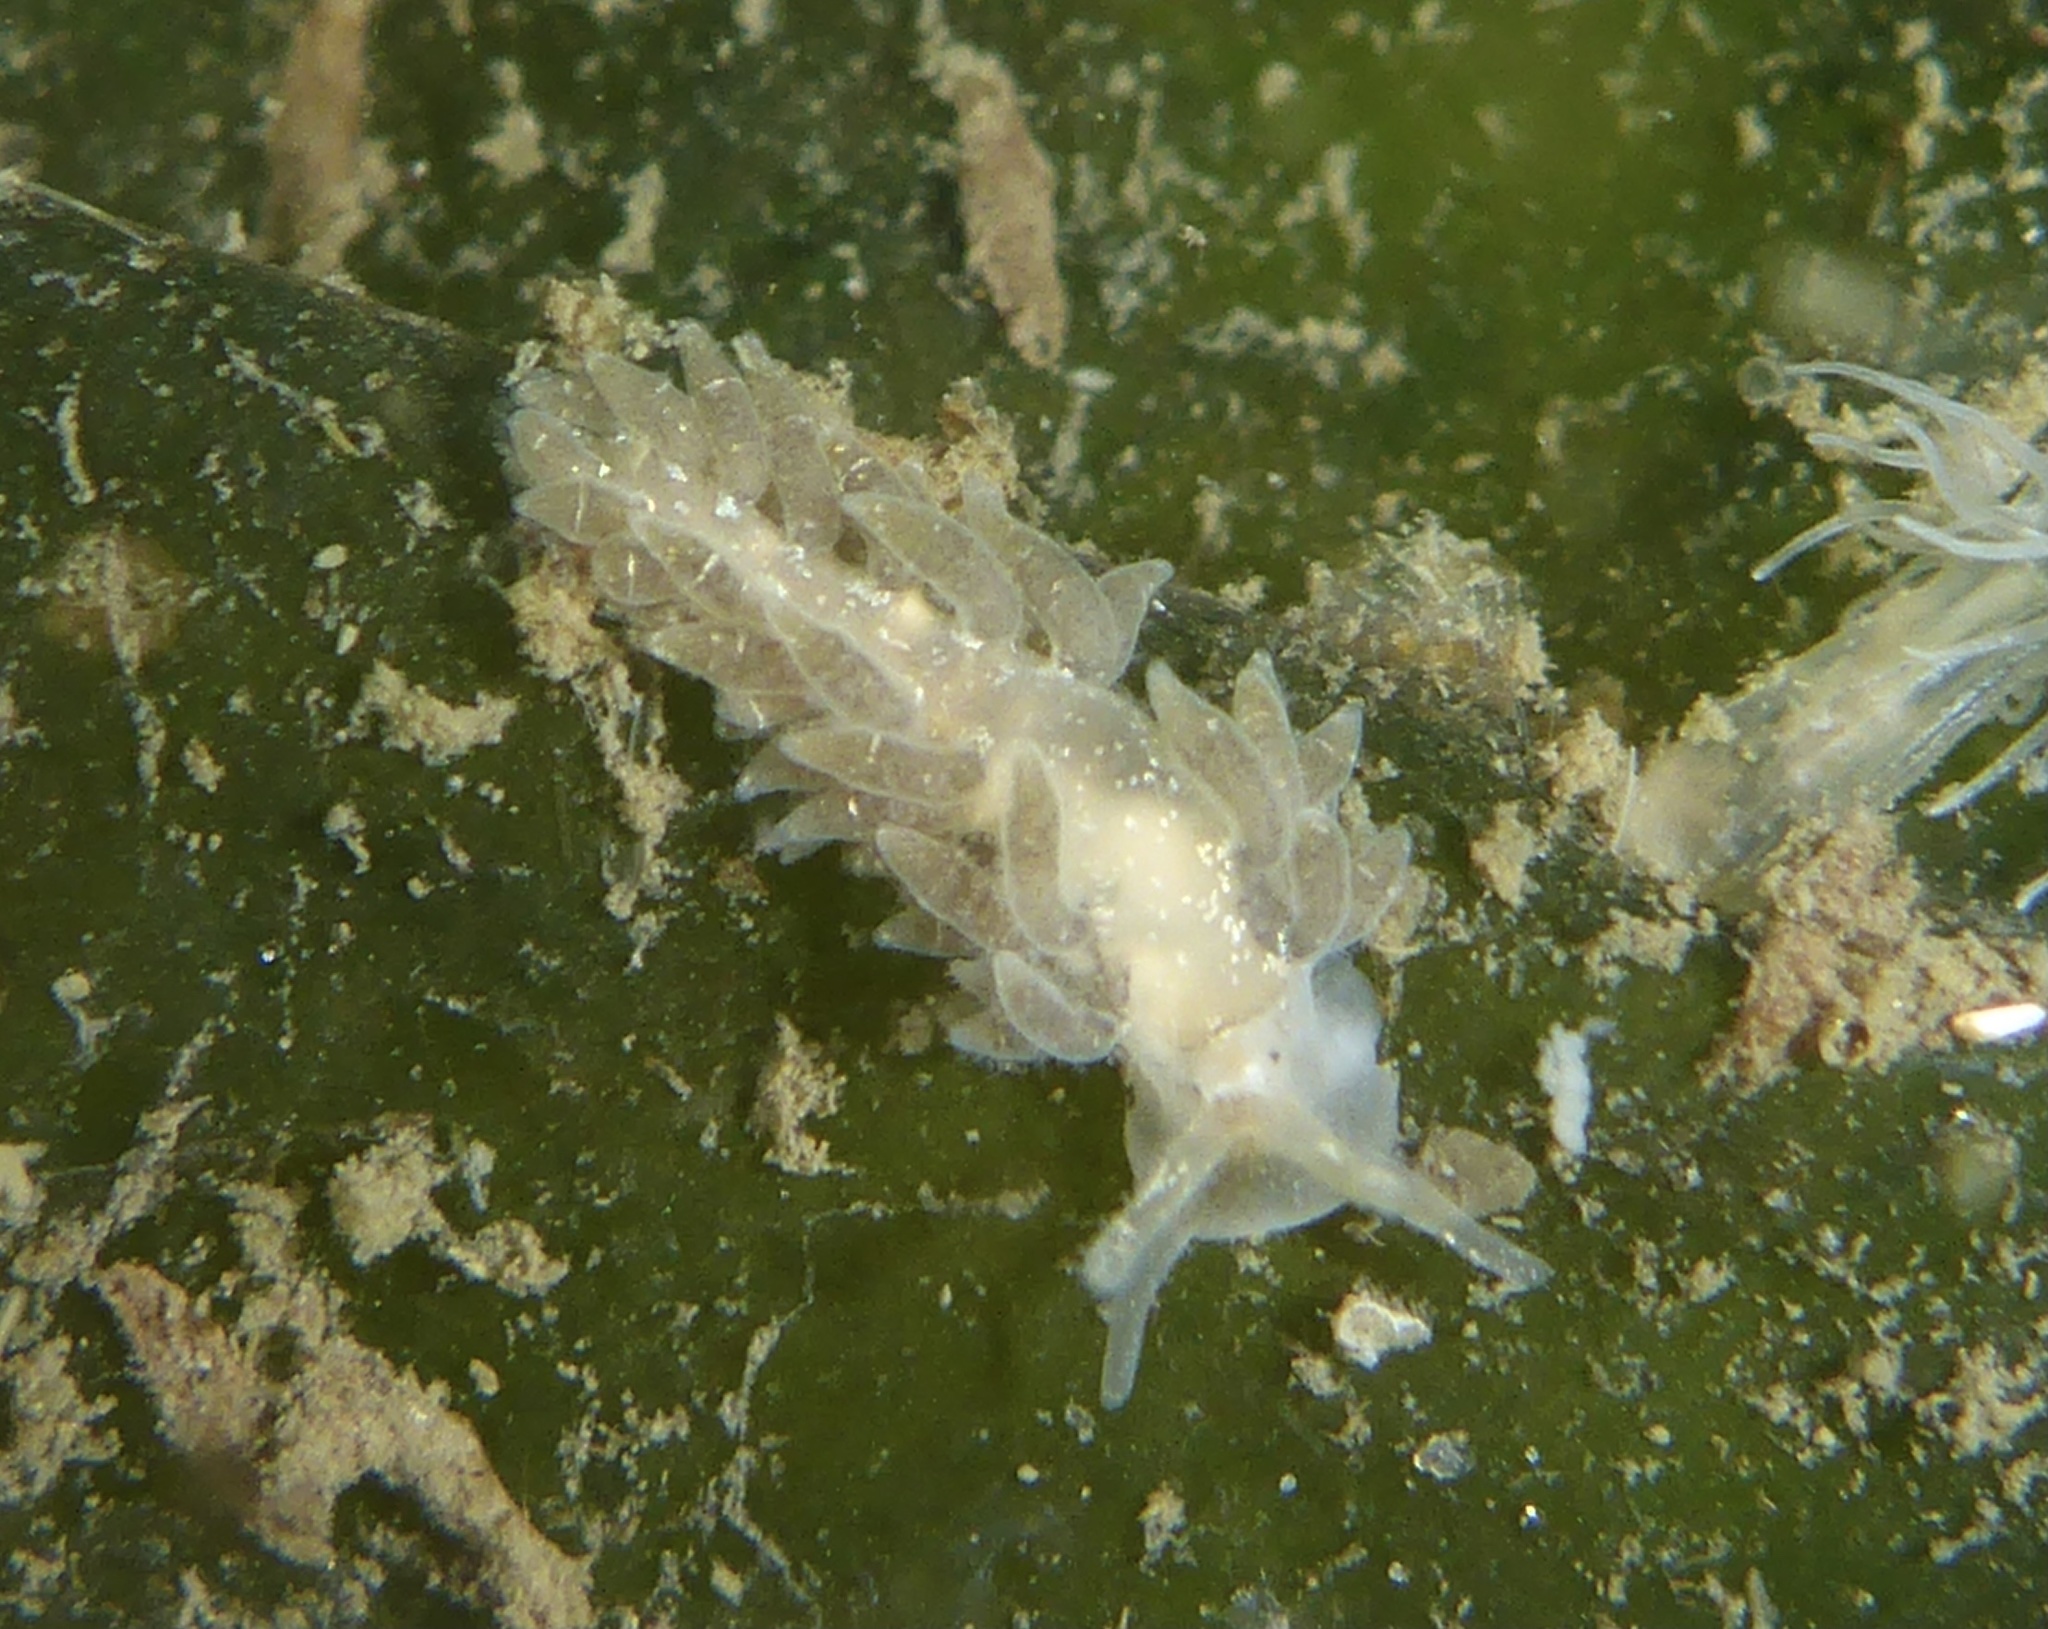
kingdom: Animalia
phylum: Mollusca
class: Gastropoda
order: Nudibranchia
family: Cuthonidae
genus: Cuthona
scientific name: Cuthona perca
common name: Lake merritt aeolis
